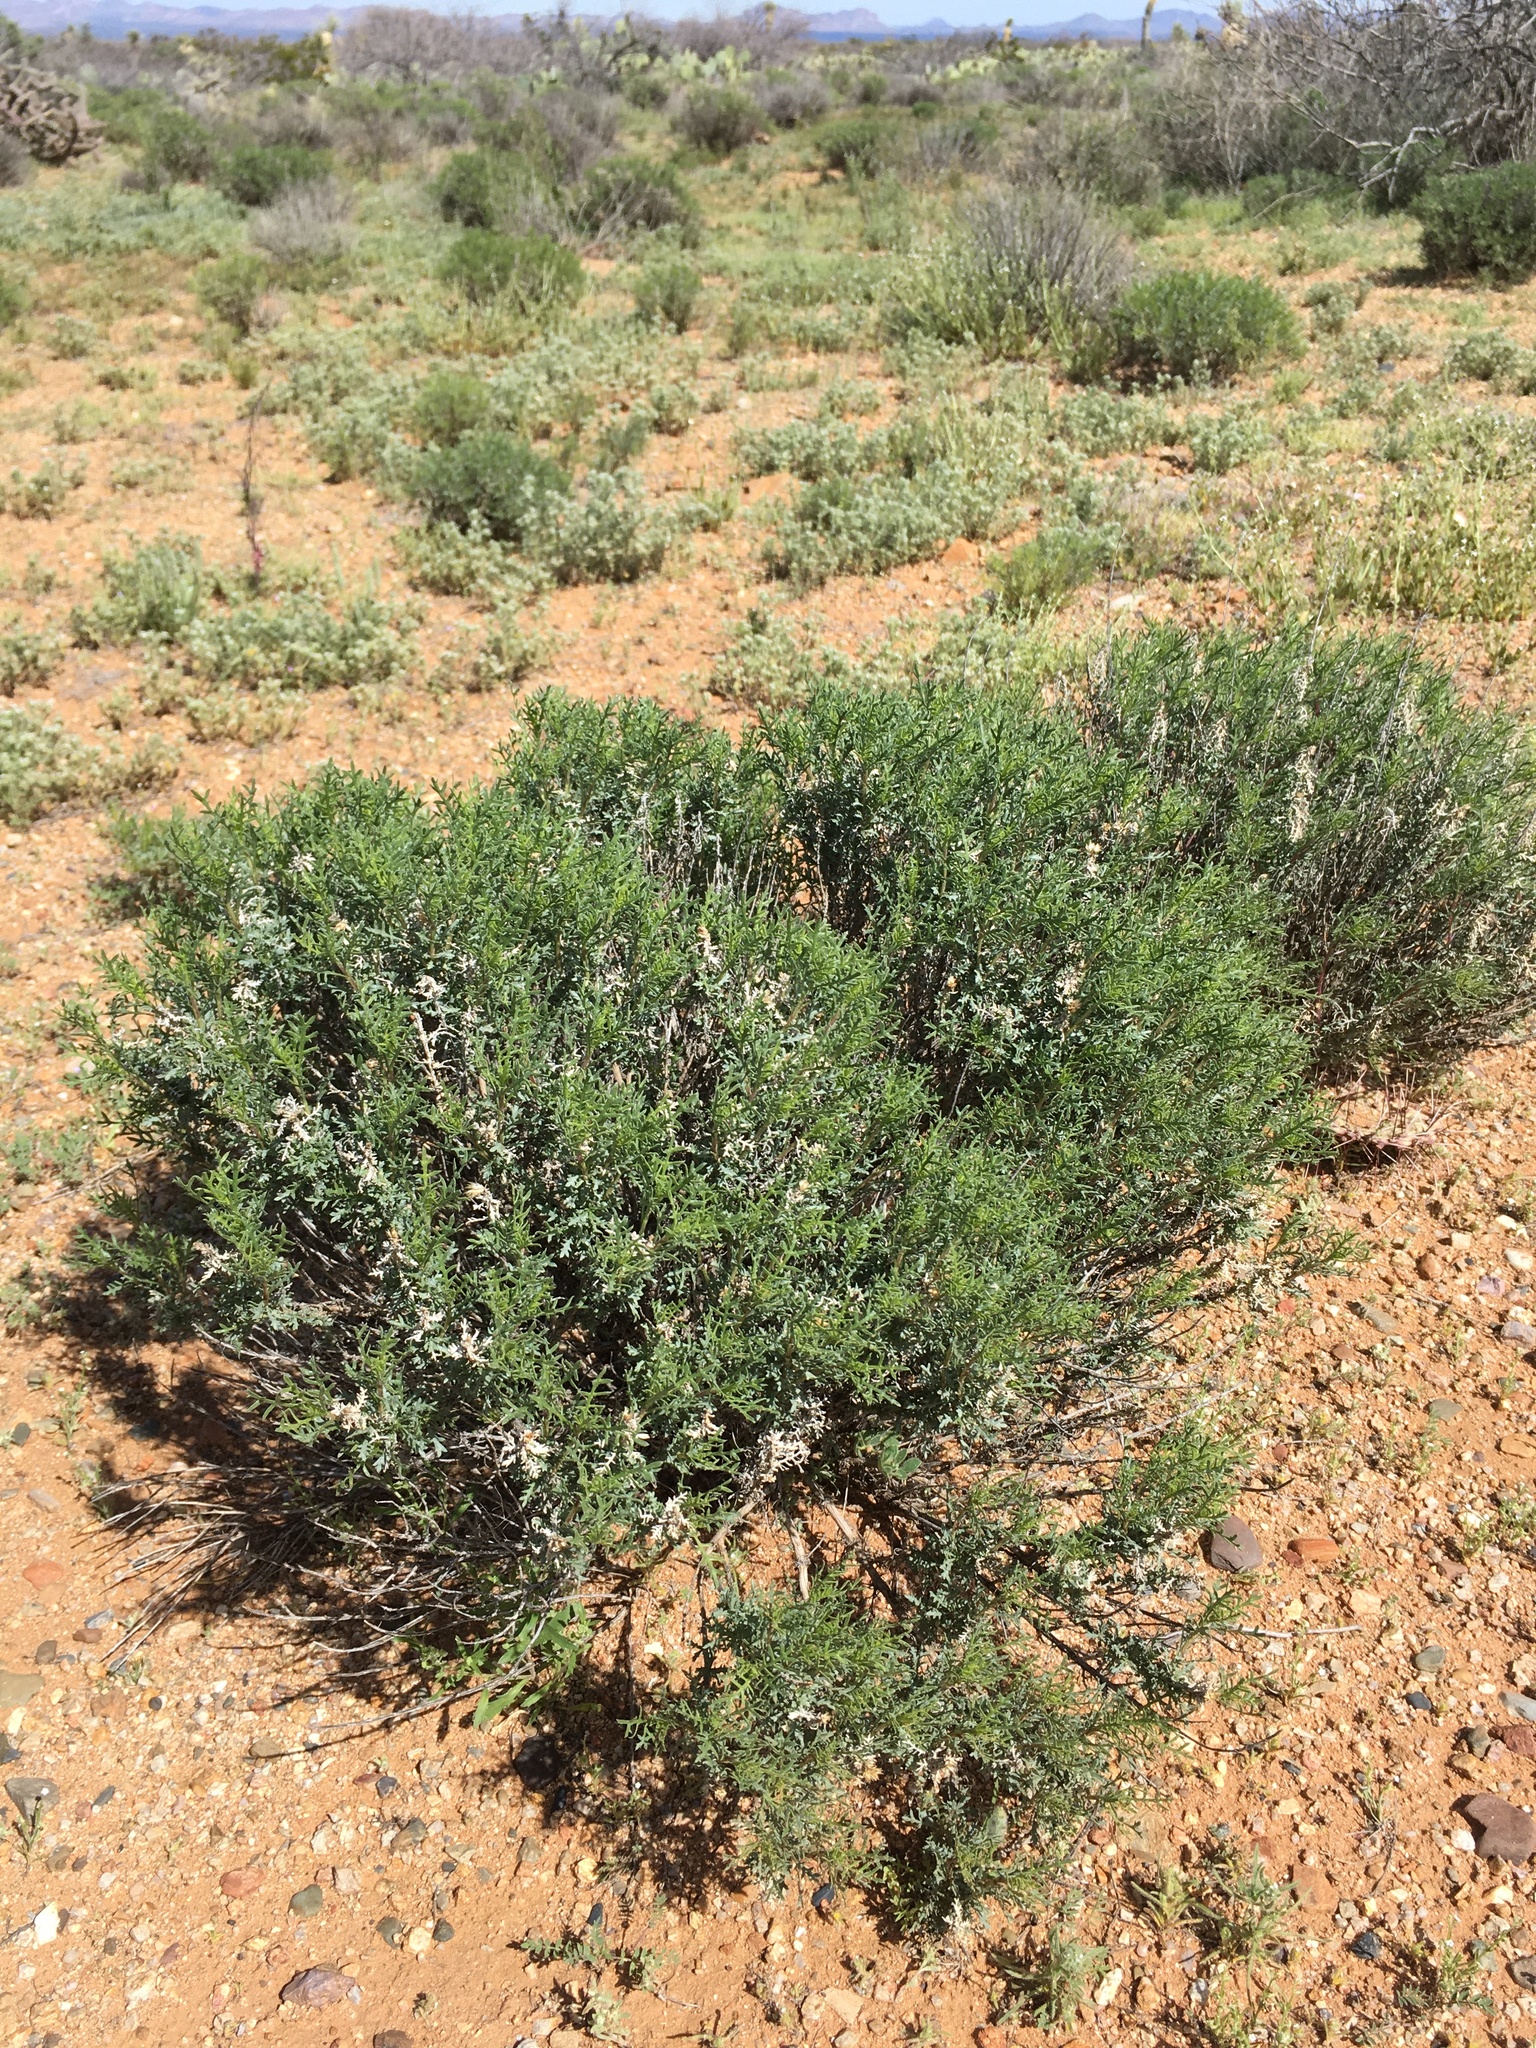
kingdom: Plantae
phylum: Tracheophyta
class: Magnoliopsida
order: Asterales
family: Asteraceae
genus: Isocoma
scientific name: Isocoma tenuisecta
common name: Burroweed
